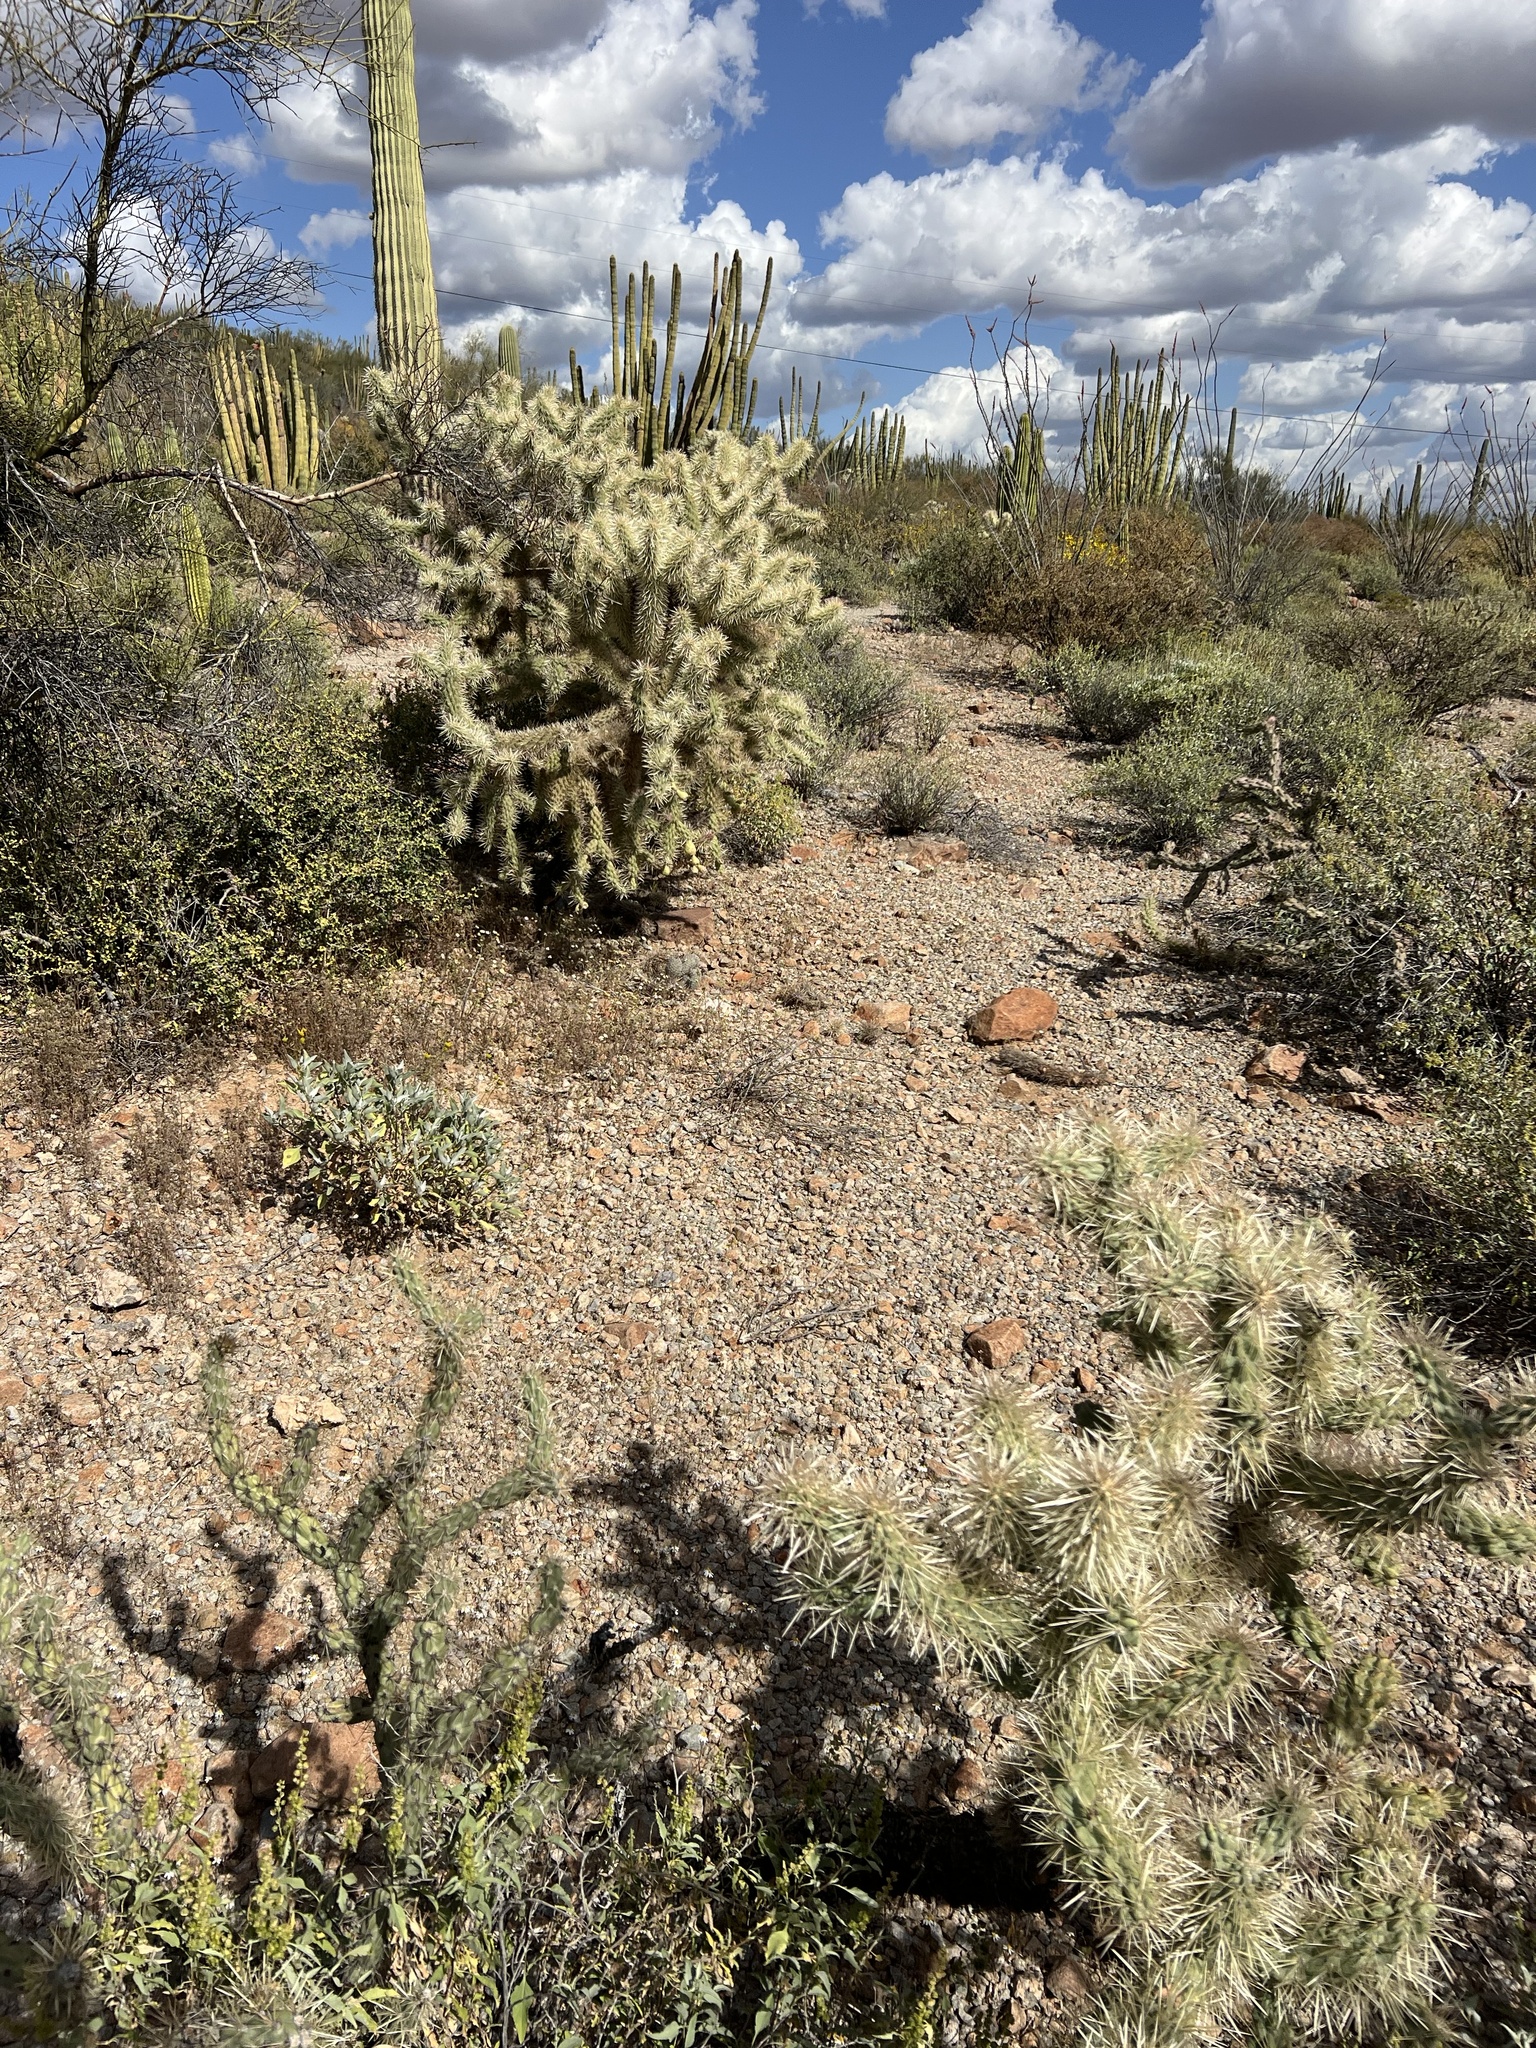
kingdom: Plantae
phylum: Tracheophyta
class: Magnoliopsida
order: Caryophyllales
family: Cactaceae
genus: Cylindropuntia
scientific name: Cylindropuntia fulgida
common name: Jumping cholla
